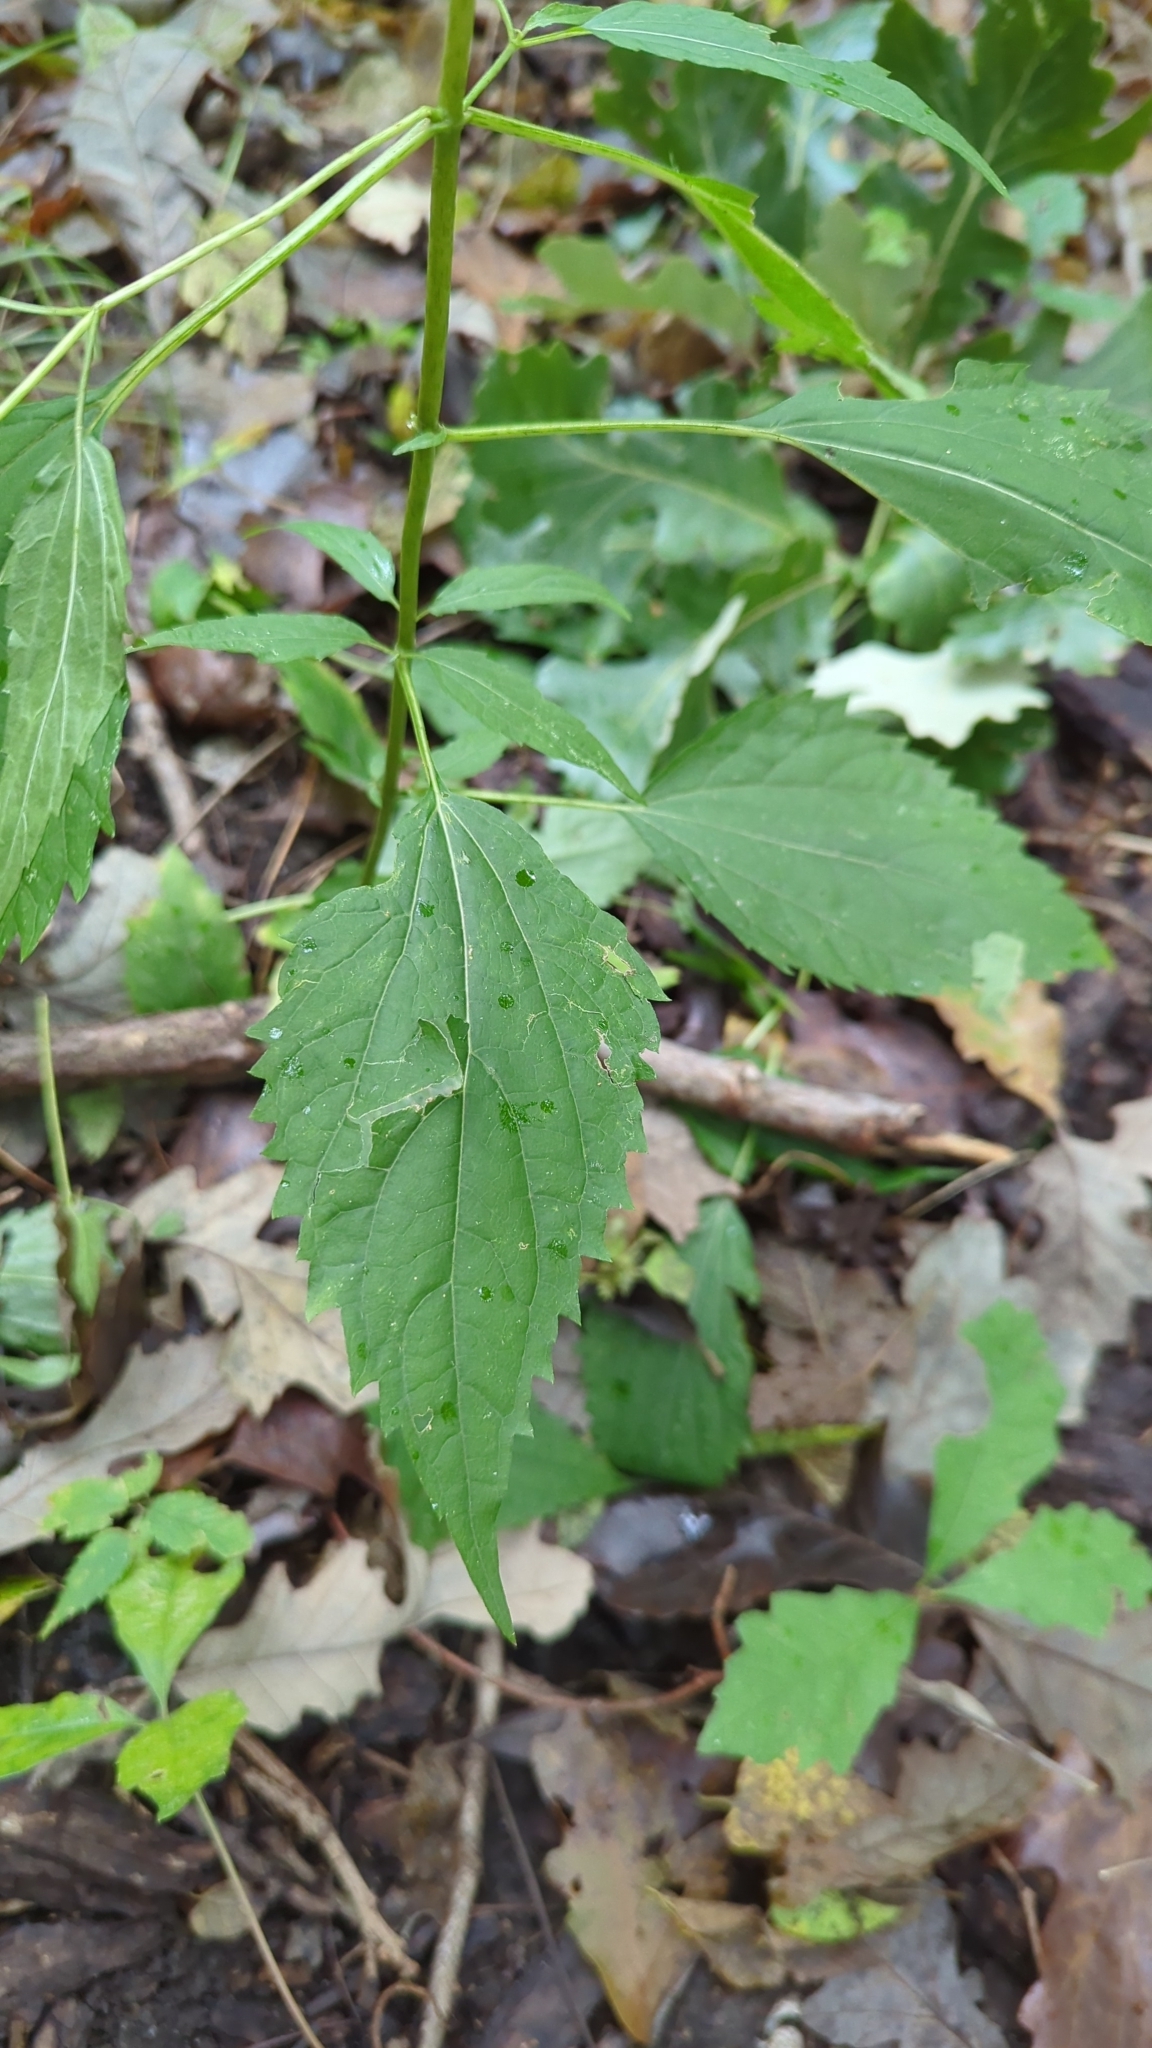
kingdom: Plantae
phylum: Tracheophyta
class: Magnoliopsida
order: Asterales
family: Asteraceae
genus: Ageratina
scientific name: Ageratina altissima
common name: White snakeroot
